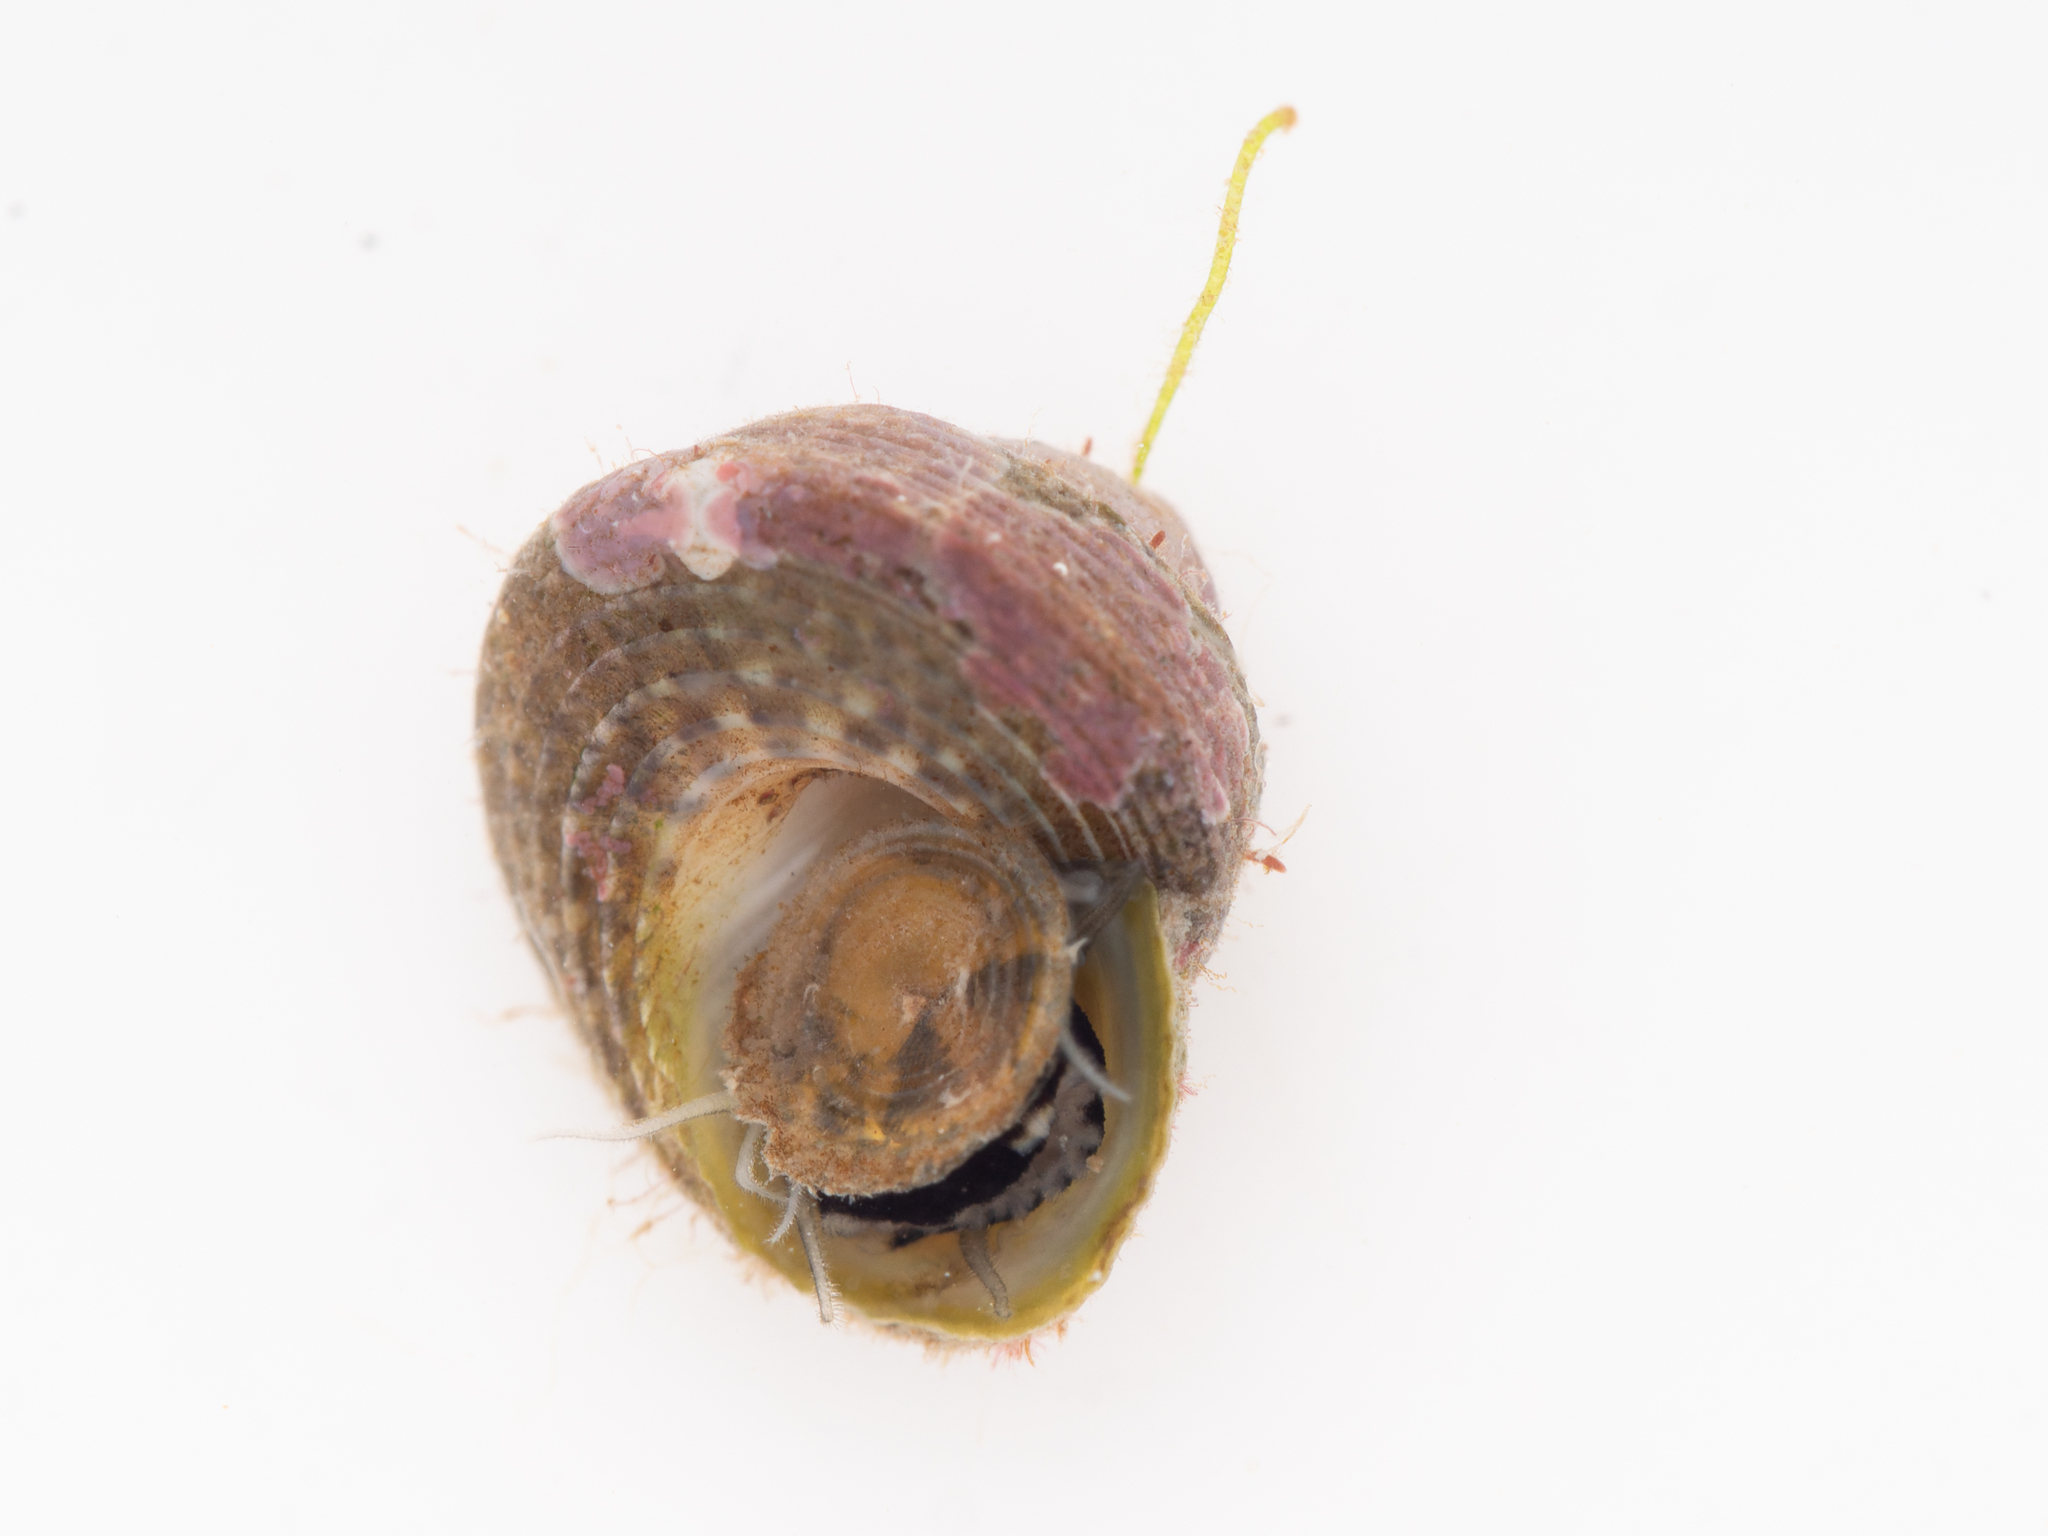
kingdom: Animalia
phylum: Mollusca
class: Gastropoda
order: Trochida
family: Trochidae
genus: Coelotrochus
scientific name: Coelotrochus oppressus
